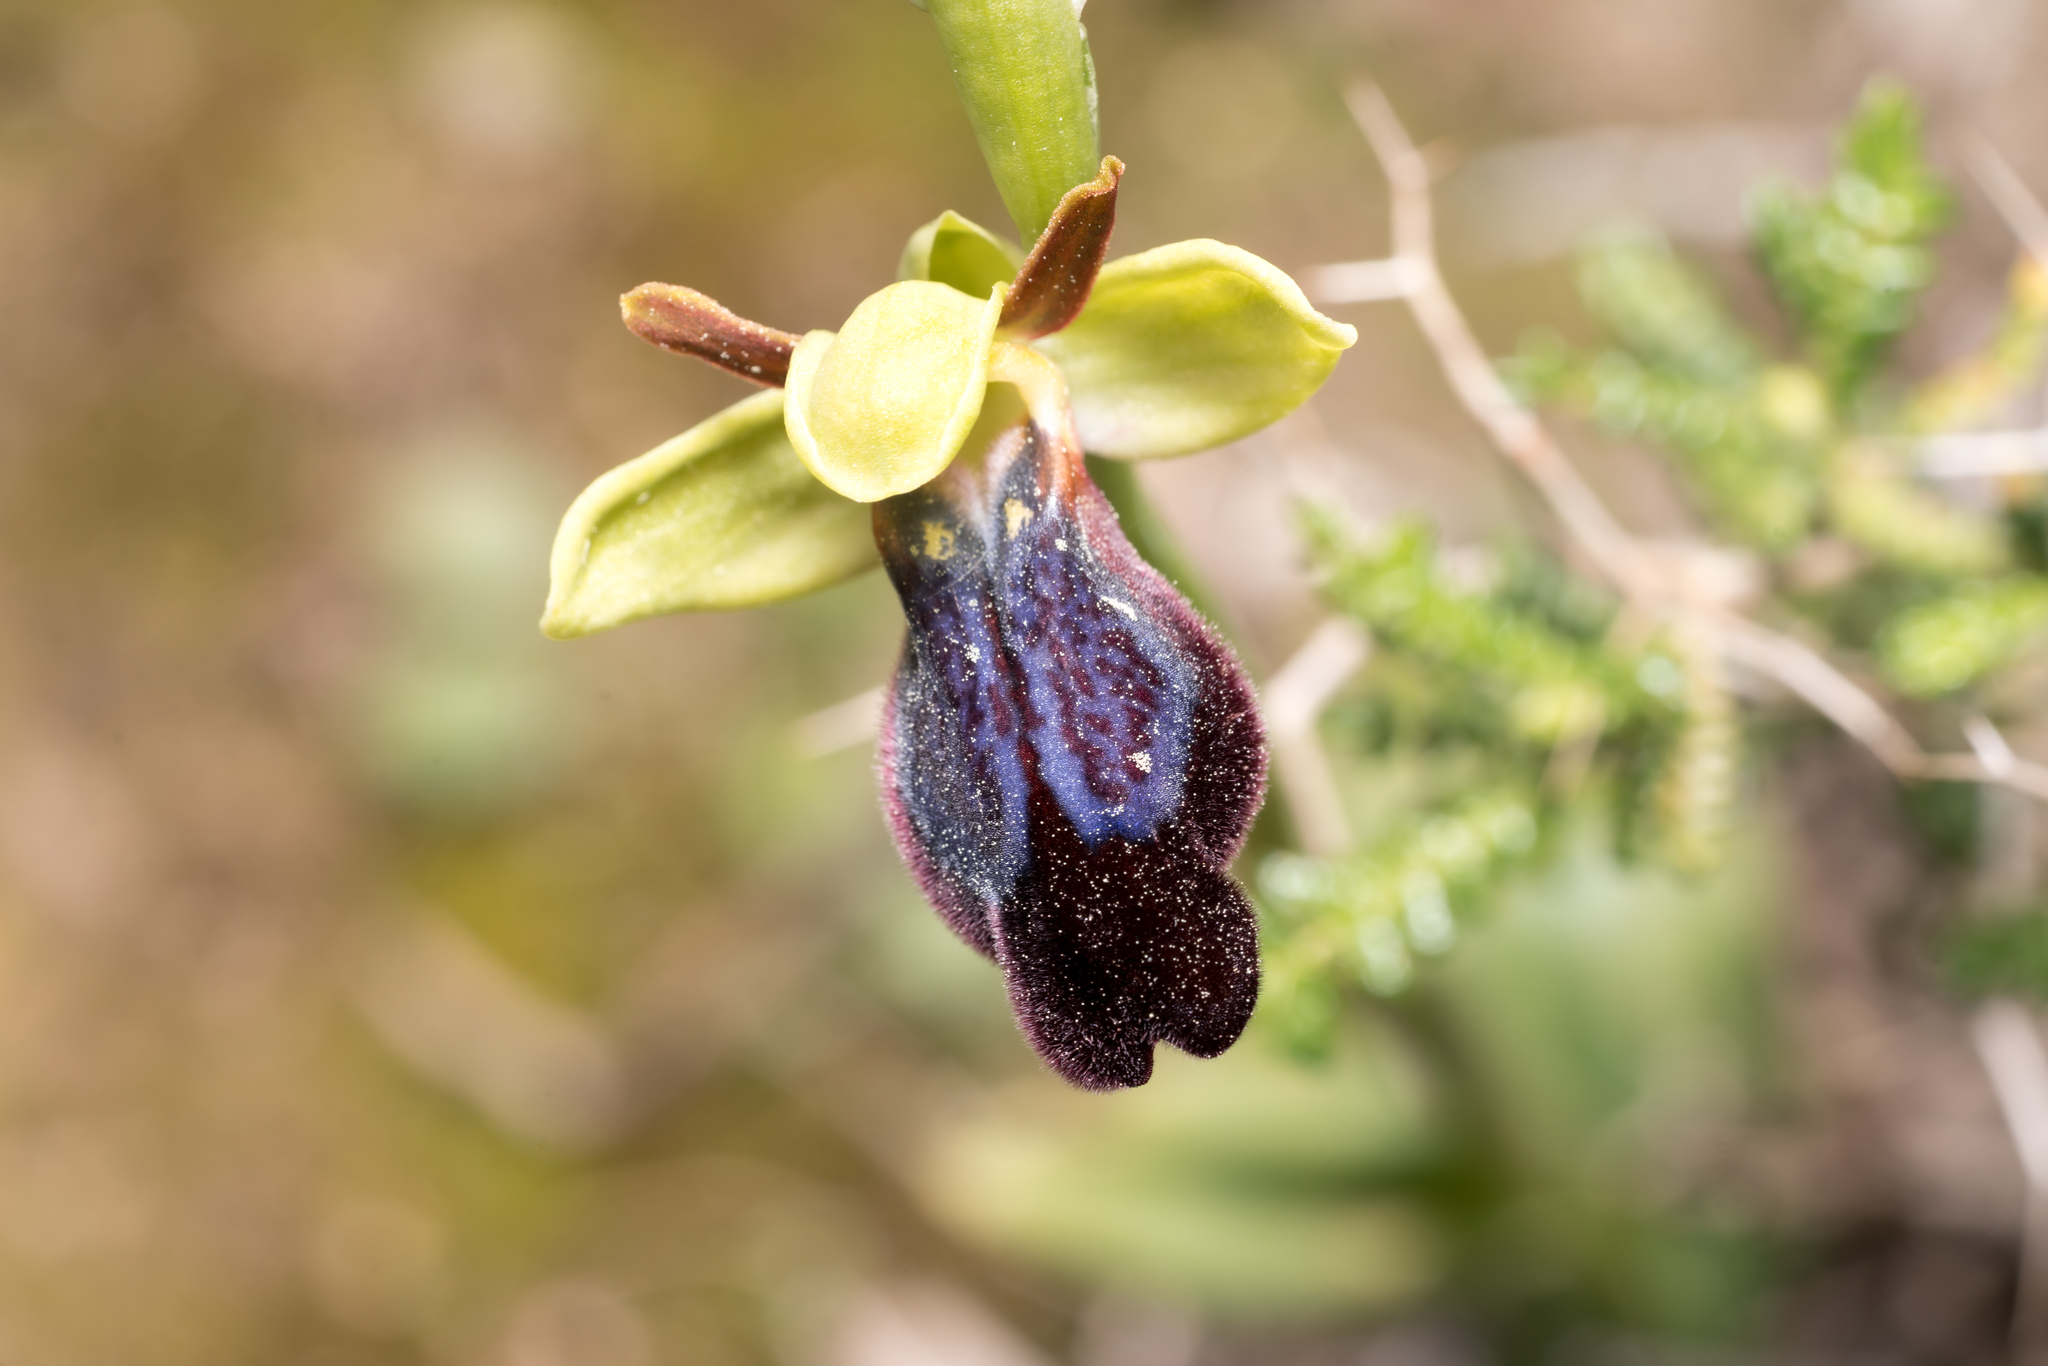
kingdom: Plantae
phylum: Tracheophyta
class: Liliopsida
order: Asparagales
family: Orchidaceae
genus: Ophrys
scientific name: Ophrys fusca
